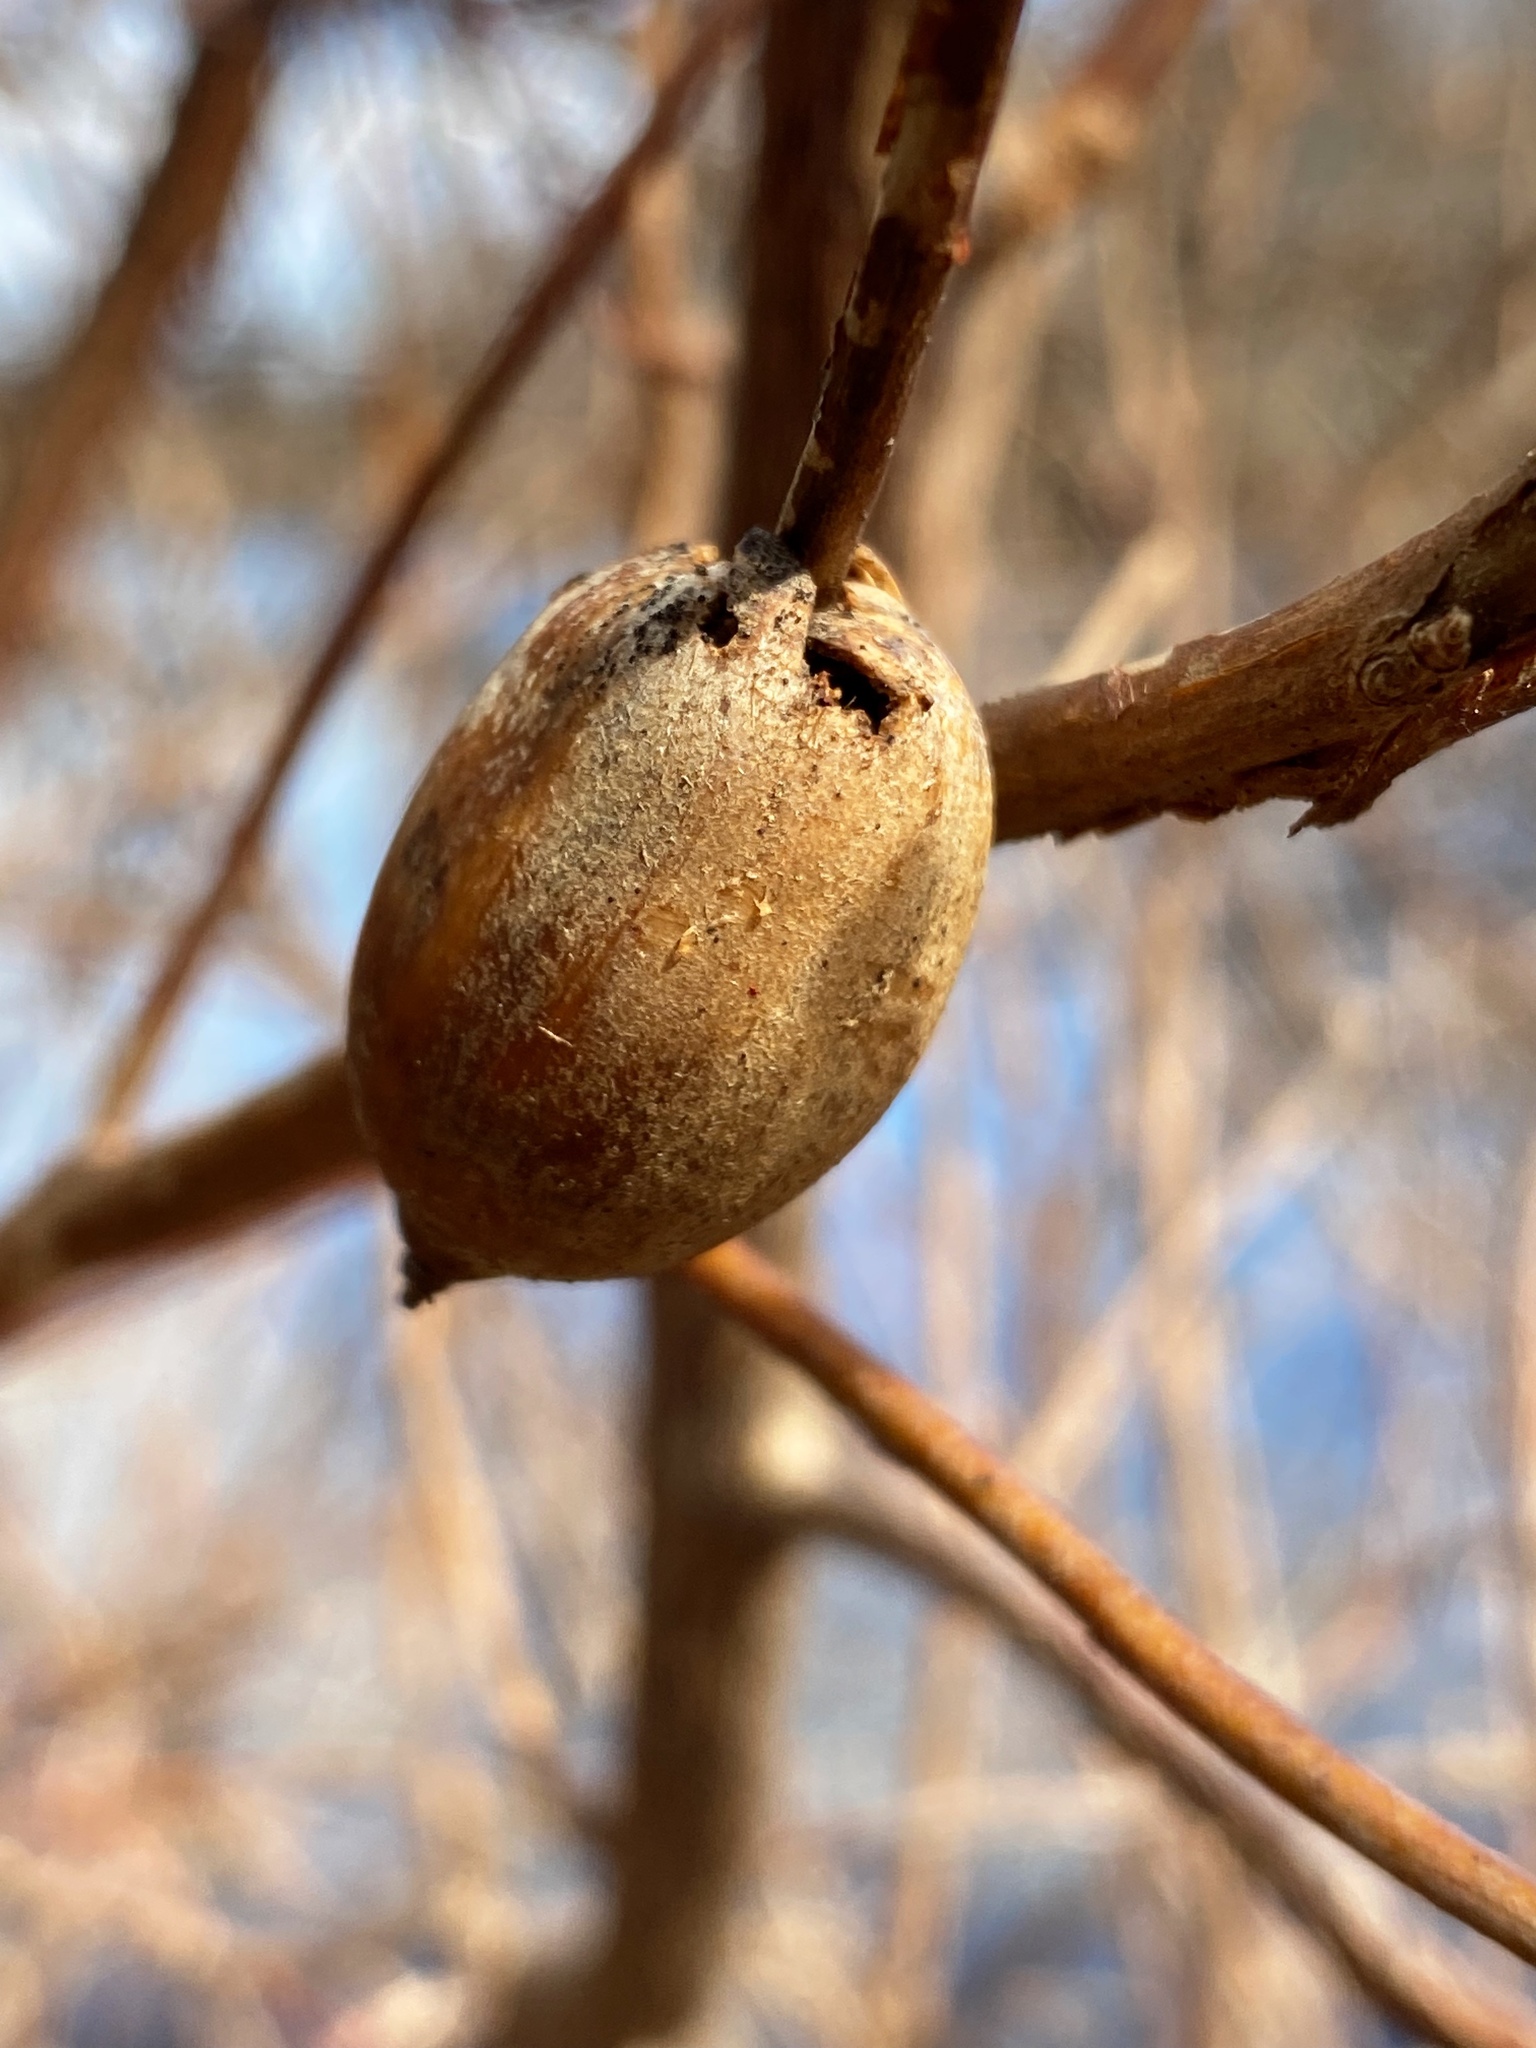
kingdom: Plantae
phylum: Tracheophyta
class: Magnoliopsida
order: Fagales
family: Fagaceae
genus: Quercus
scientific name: Quercus rubra
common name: Red oak
